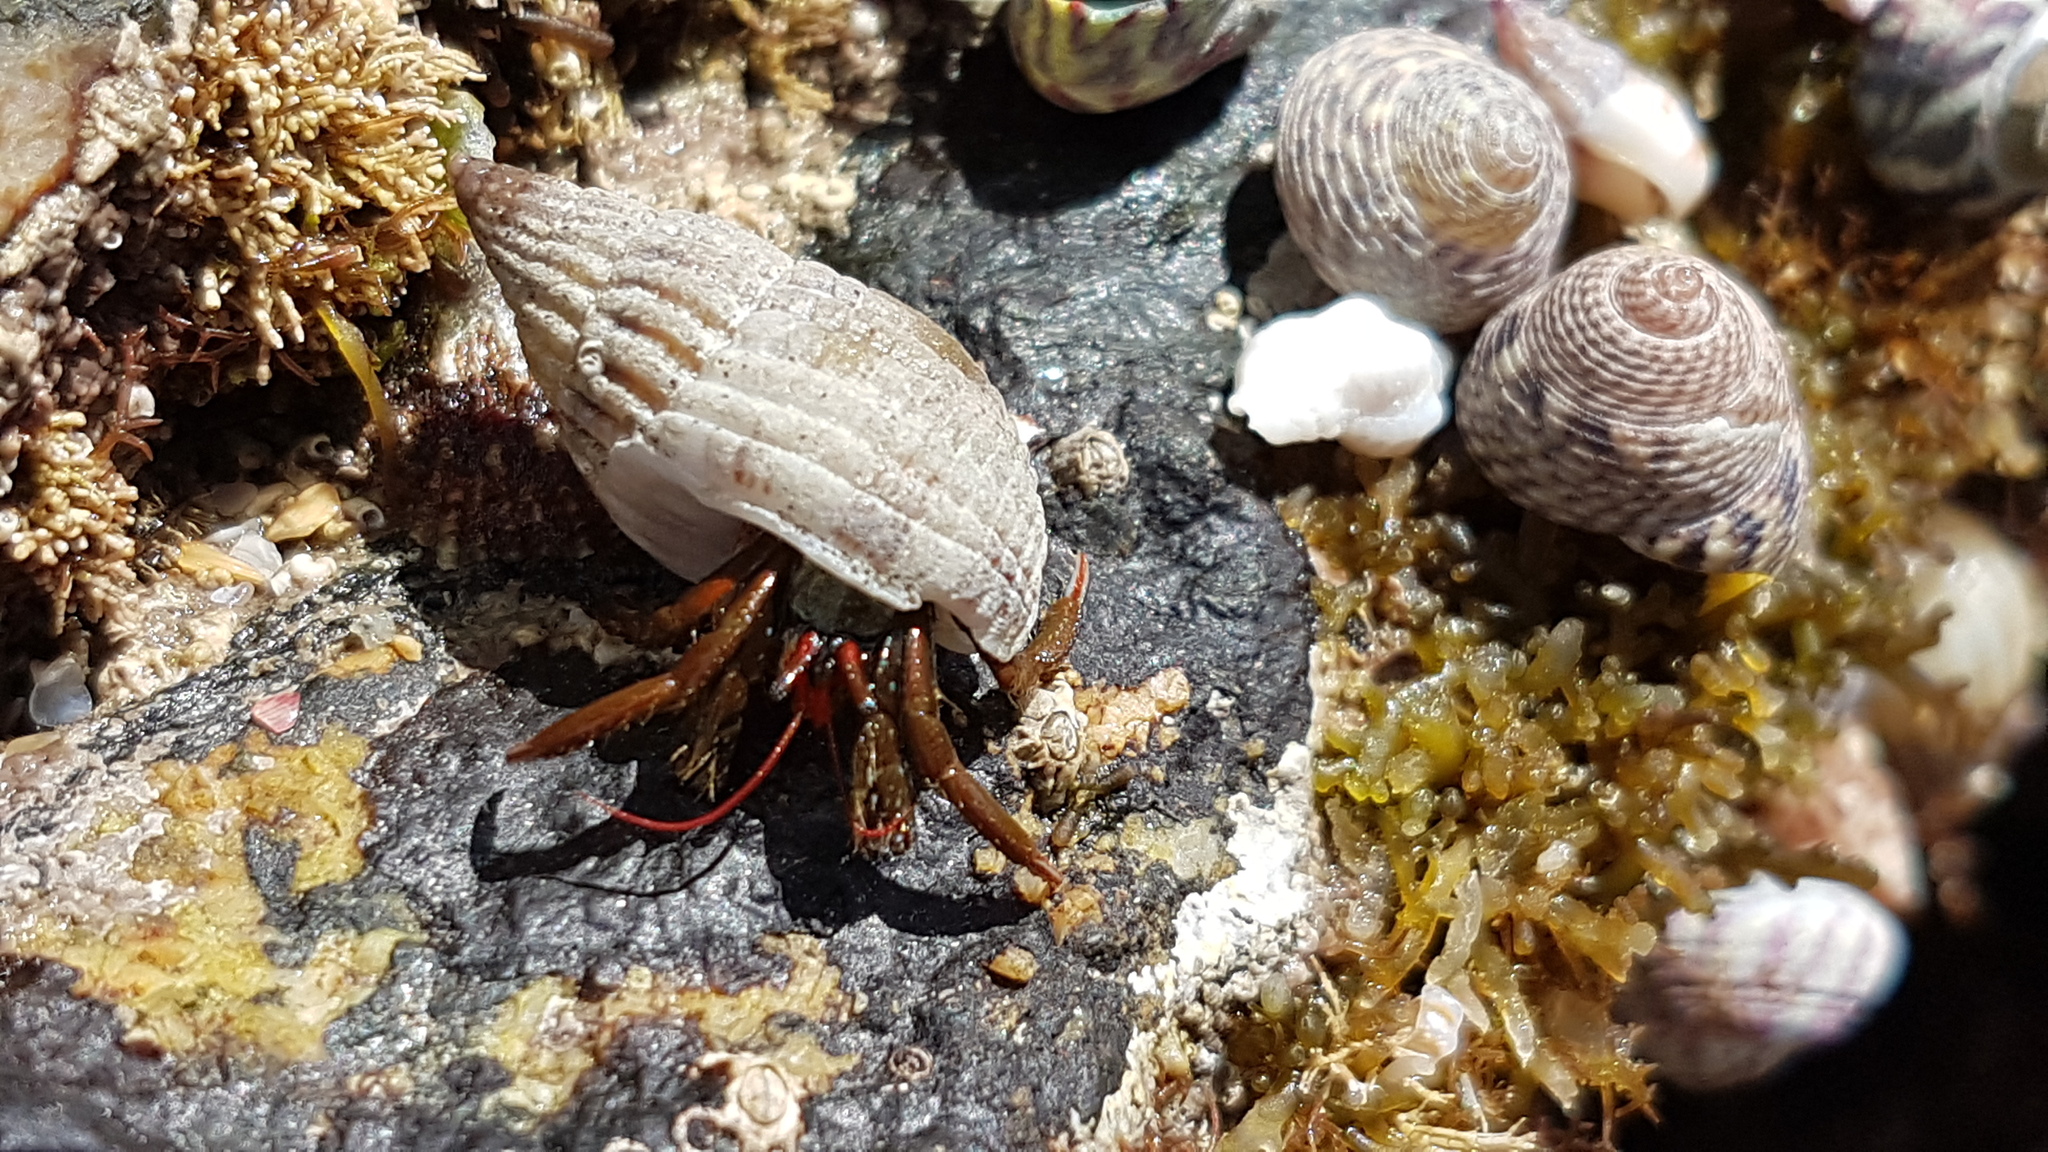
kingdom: Animalia
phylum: Arthropoda
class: Malacostraca
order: Decapoda
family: Diogenidae
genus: Clibanarius
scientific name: Clibanarius erythropus
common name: Hermit crab
